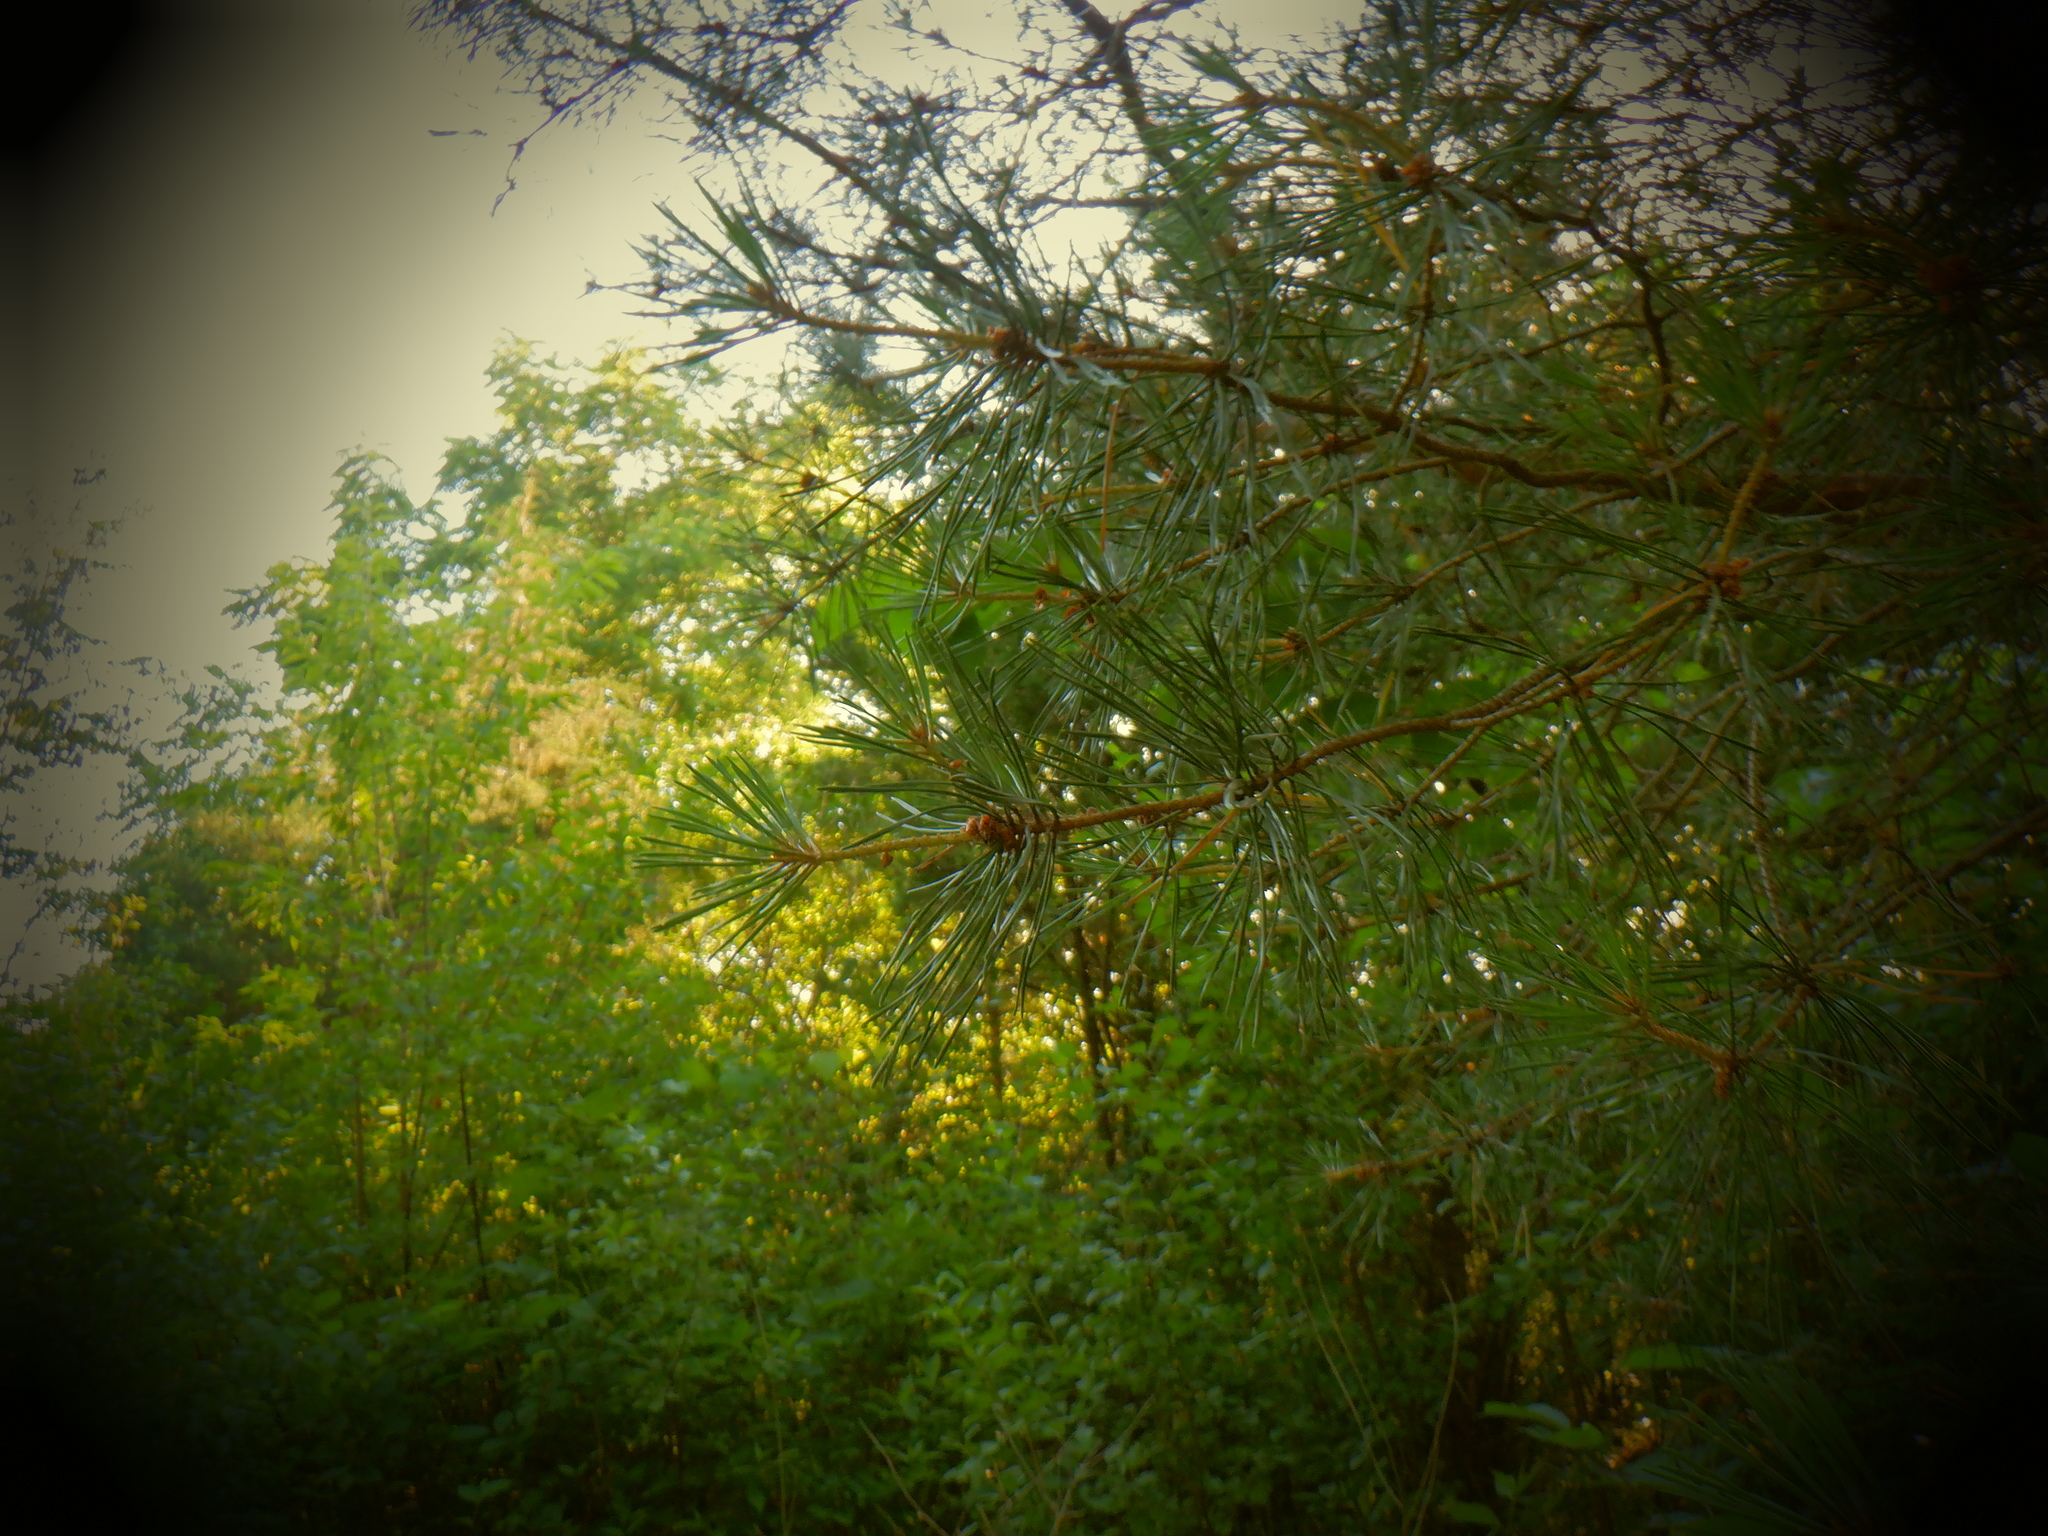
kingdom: Plantae
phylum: Tracheophyta
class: Pinopsida
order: Pinales
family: Pinaceae
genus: Pinus
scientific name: Pinus sylvestris
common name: Scots pine
